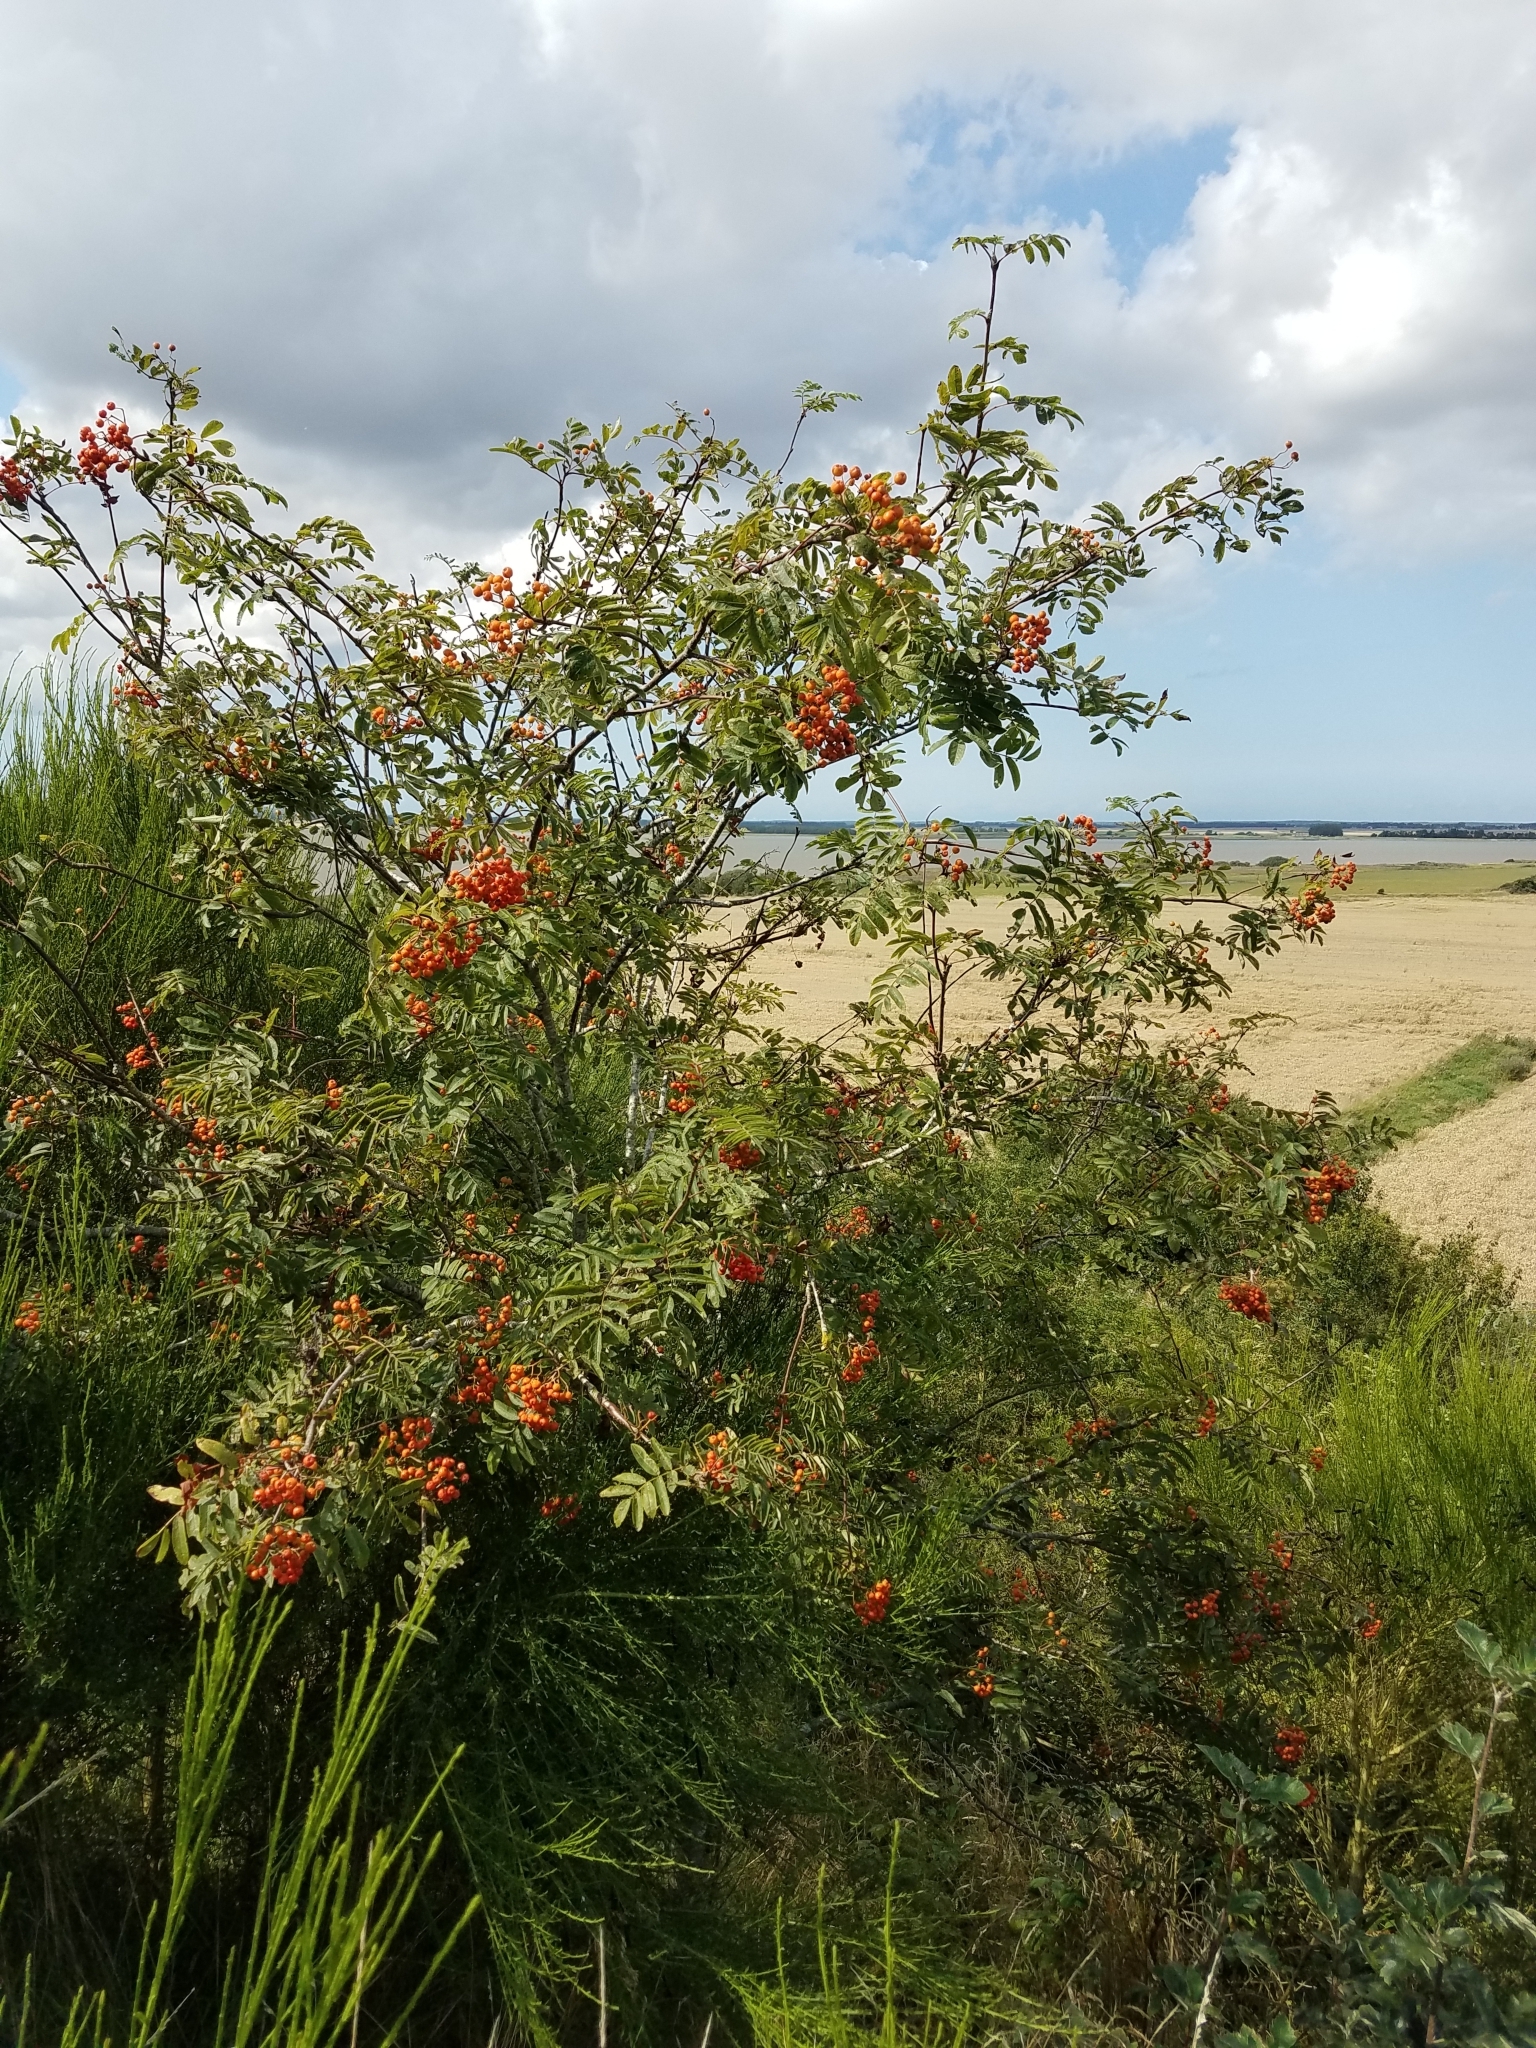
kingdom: Plantae
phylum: Tracheophyta
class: Magnoliopsida
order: Rosales
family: Rosaceae
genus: Sorbus
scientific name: Sorbus aucuparia
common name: Rowan
